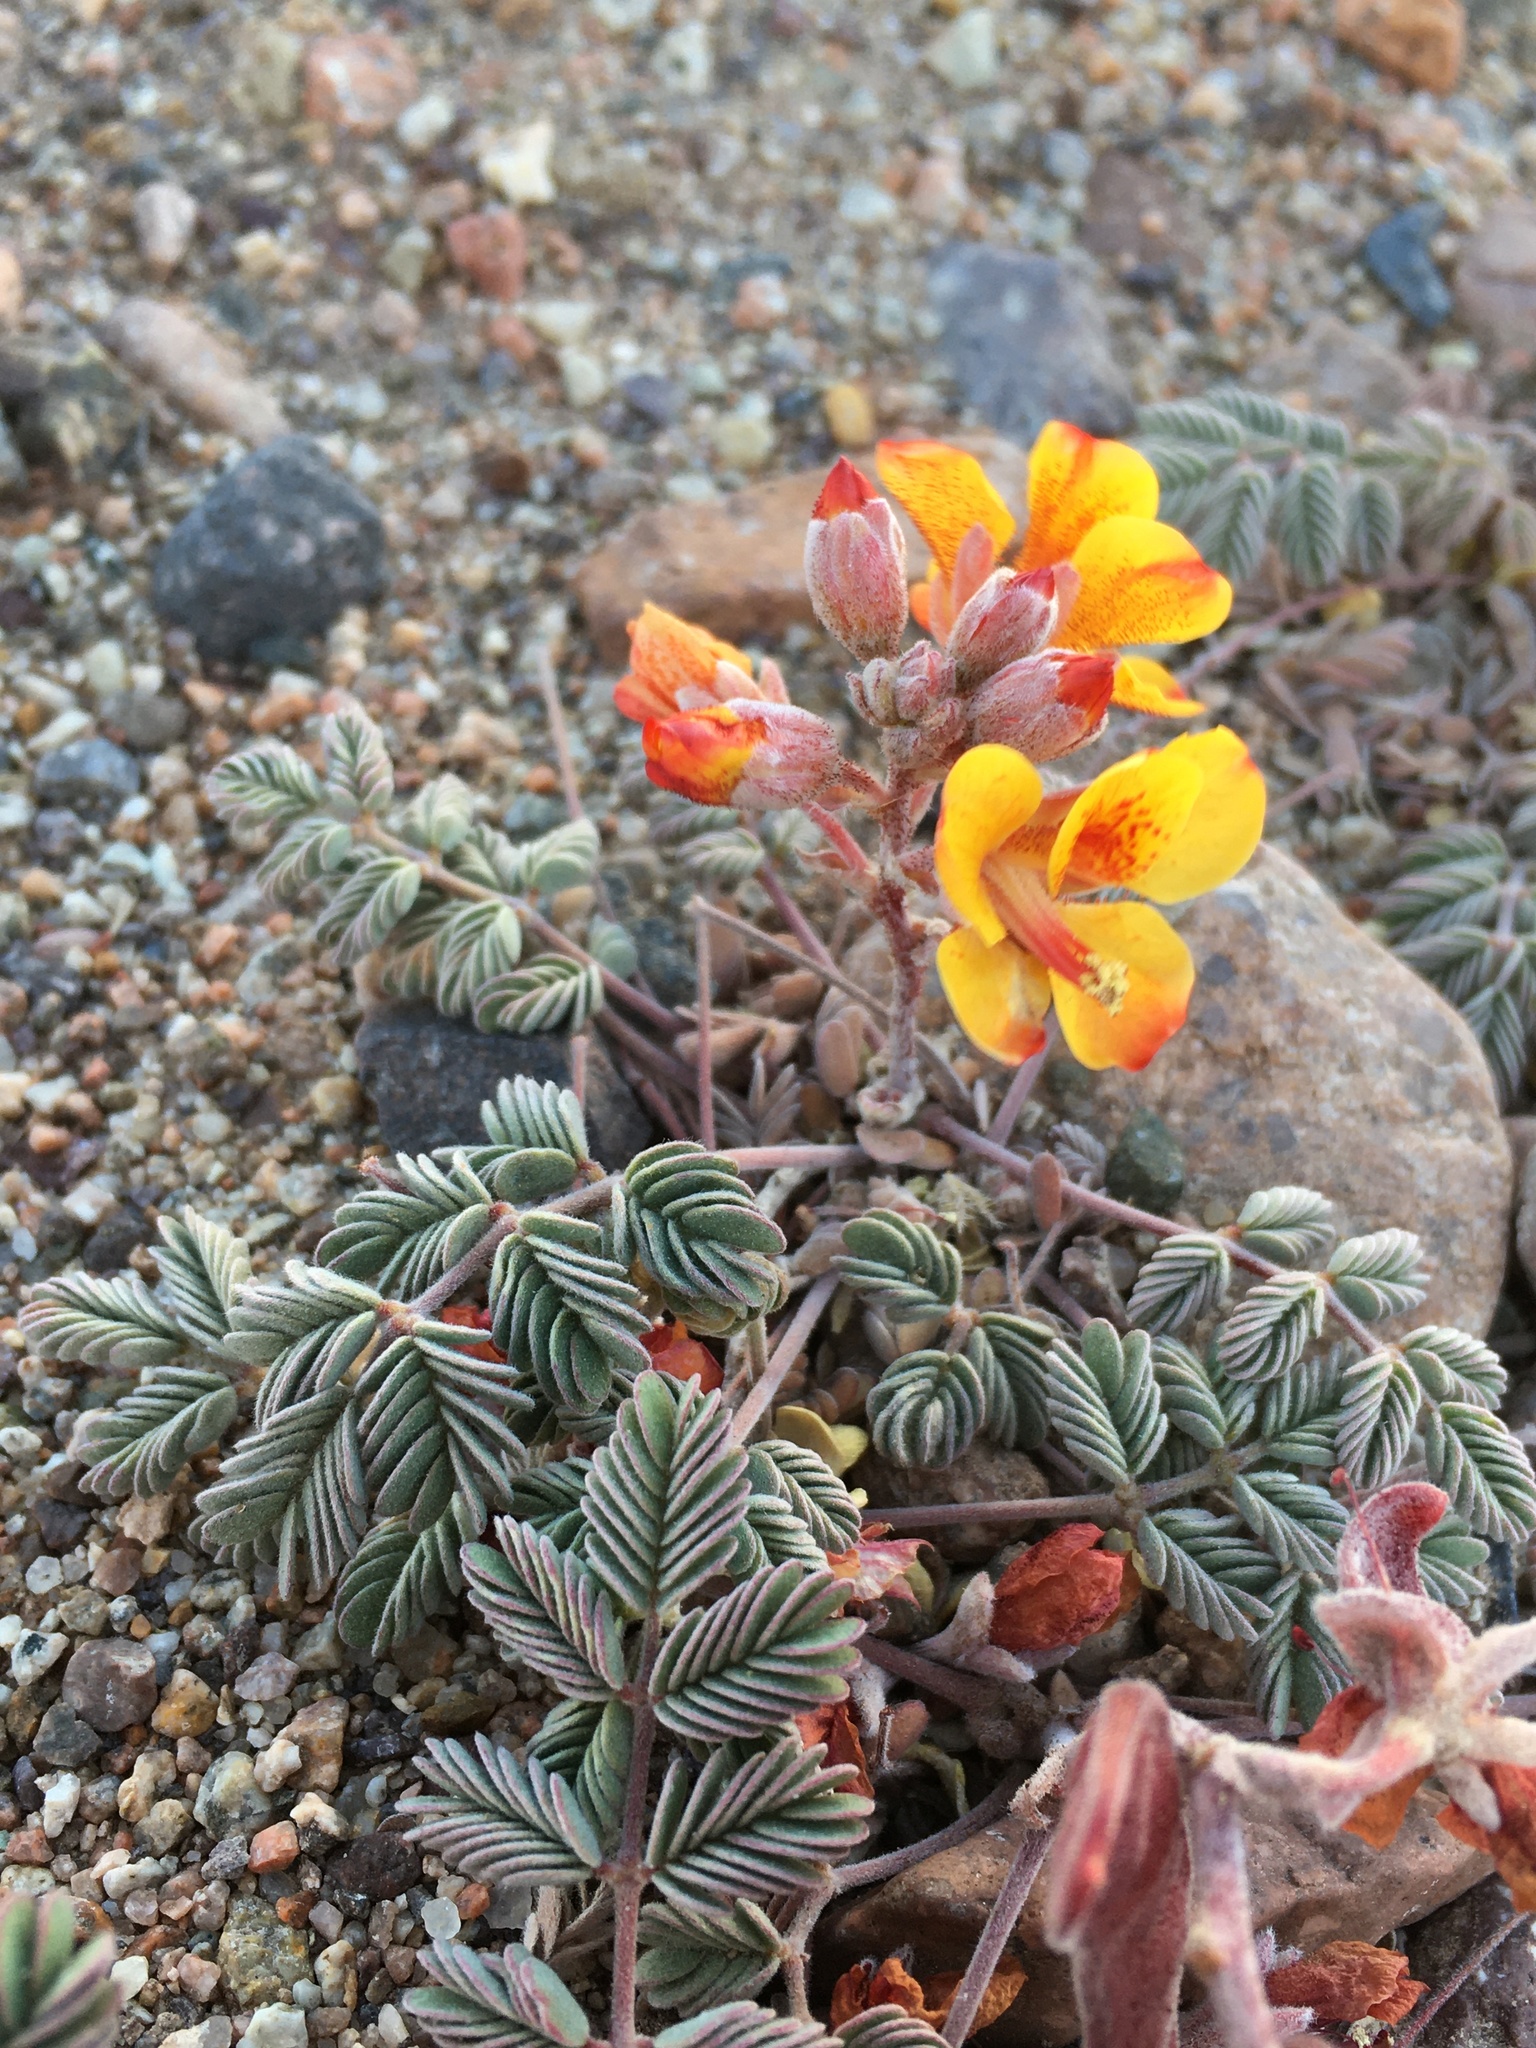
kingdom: Plantae
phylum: Tracheophyta
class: Magnoliopsida
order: Fabales
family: Fabaceae
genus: Hoffmannseggia
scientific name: Hoffmannseggia doellii
